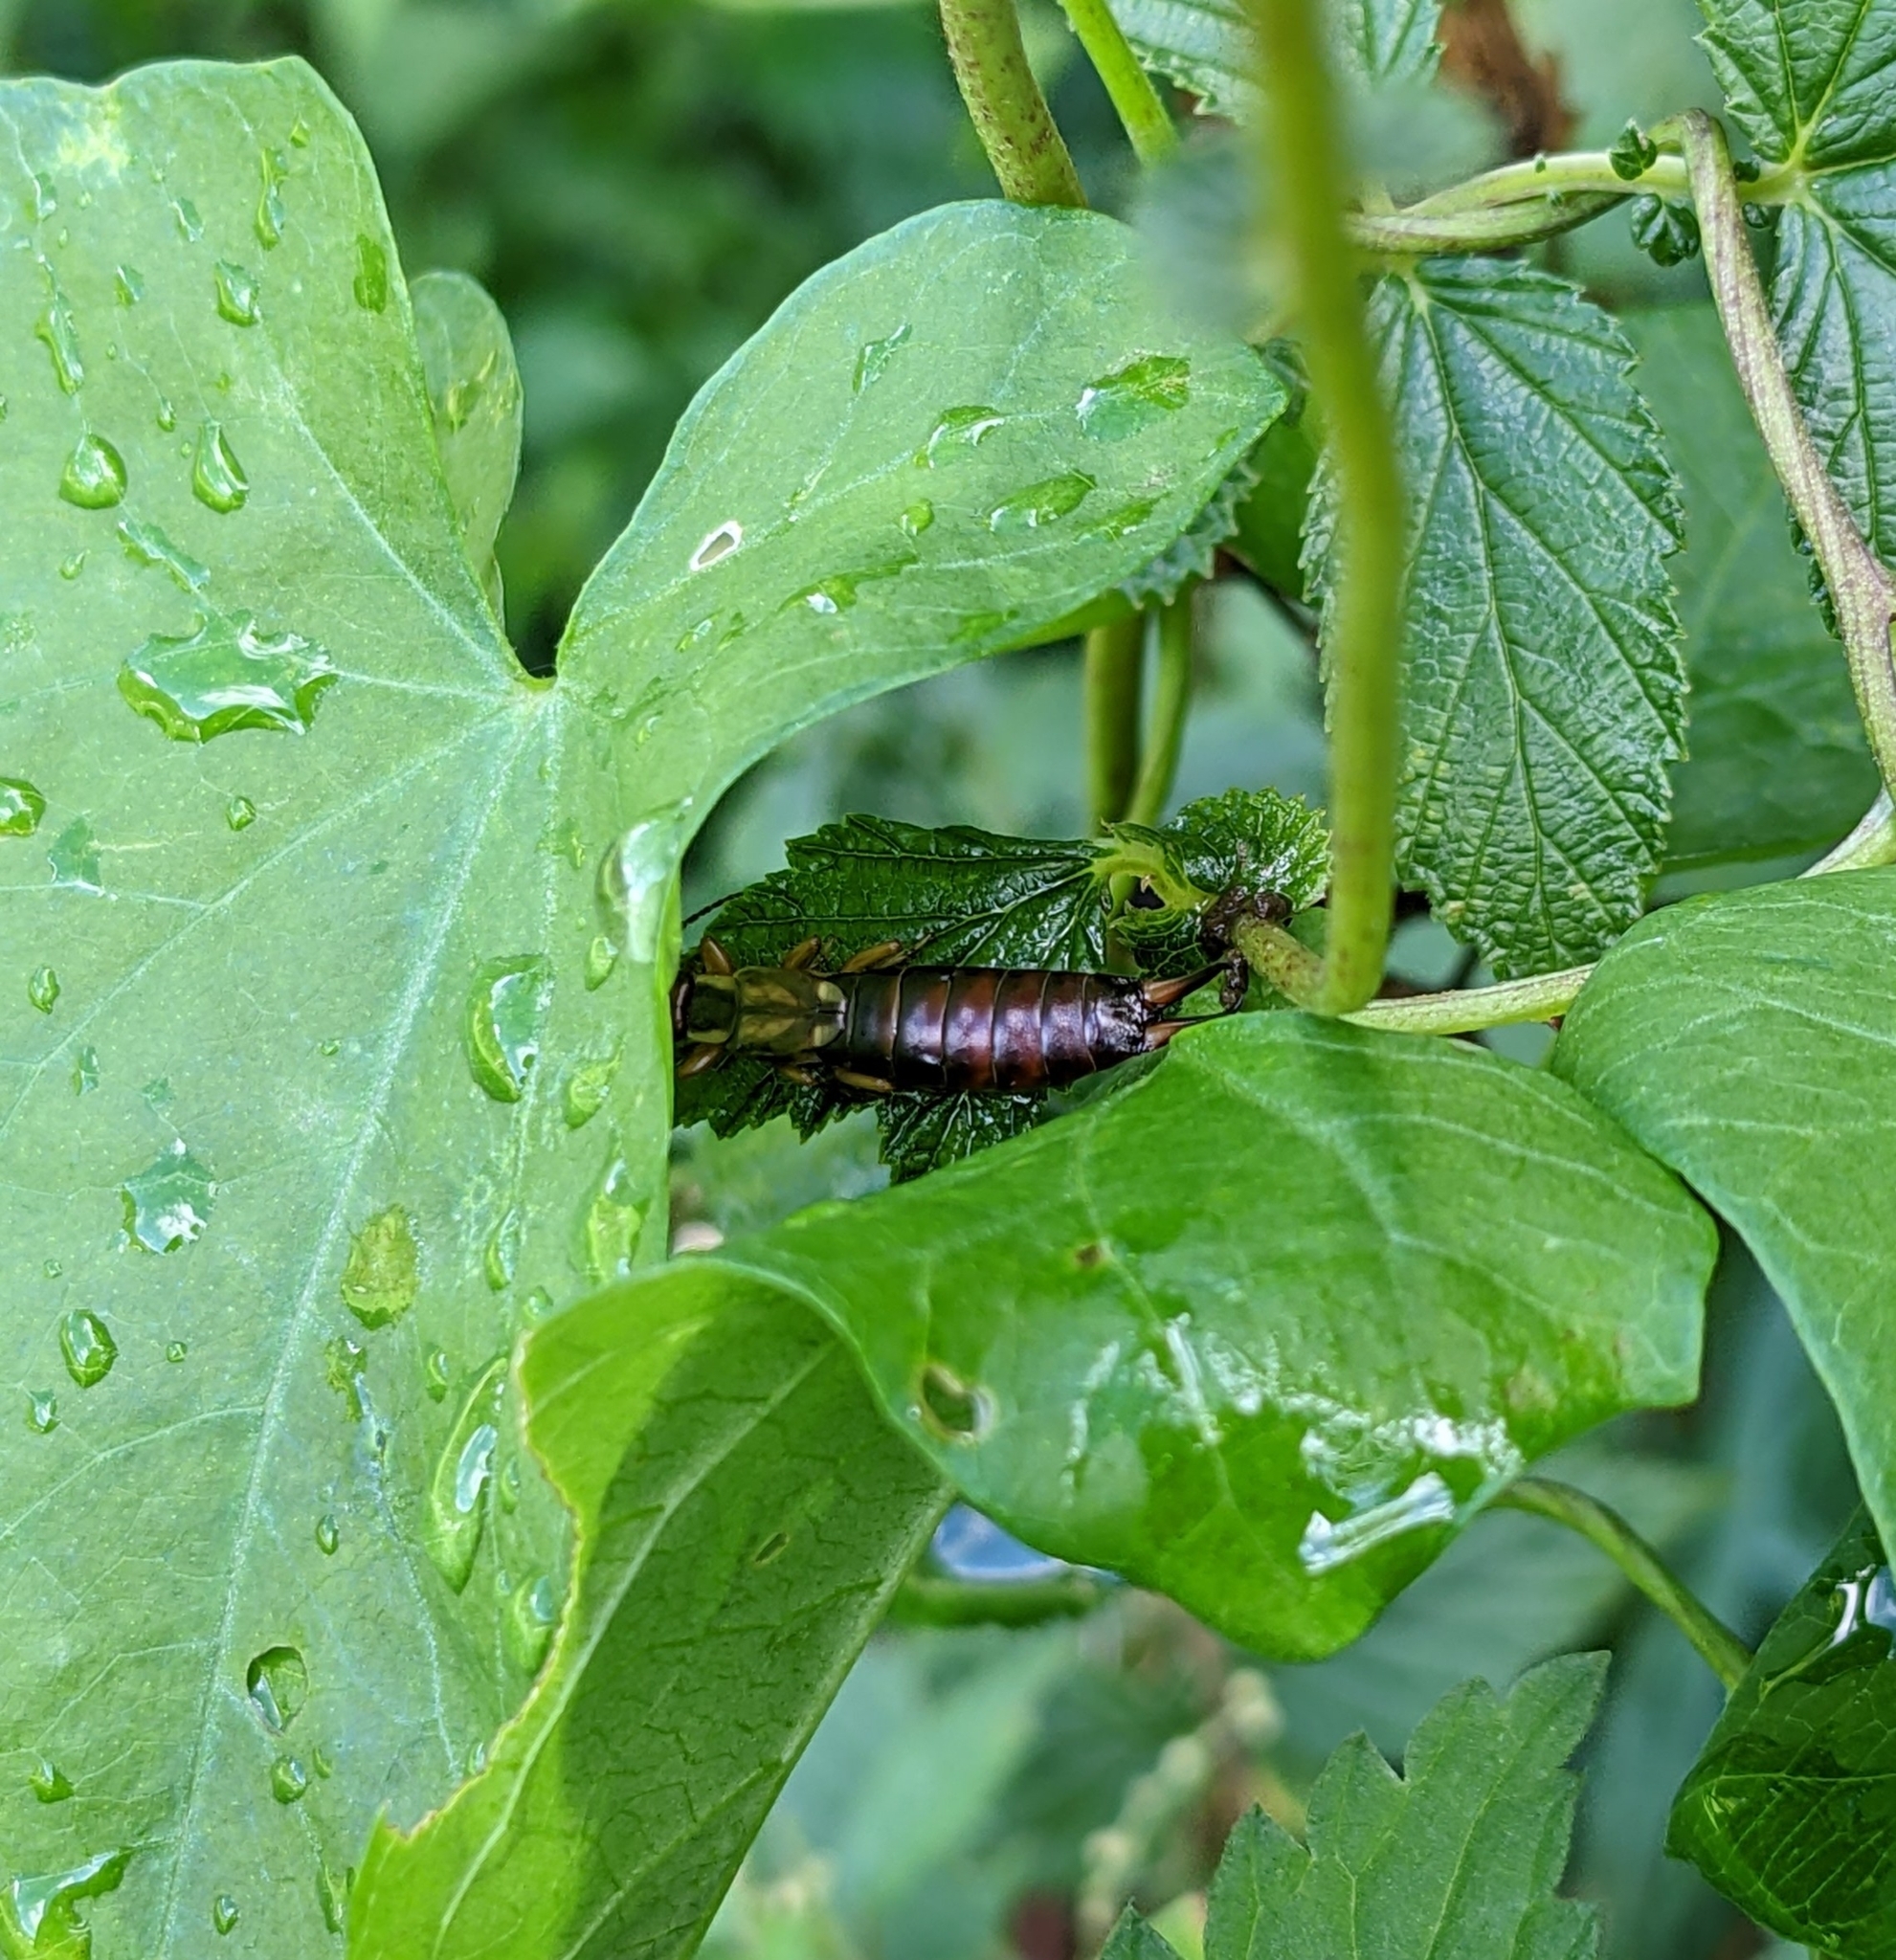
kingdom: Animalia
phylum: Arthropoda
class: Insecta
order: Dermaptera
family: Forficulidae
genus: Forficula
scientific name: Forficula
